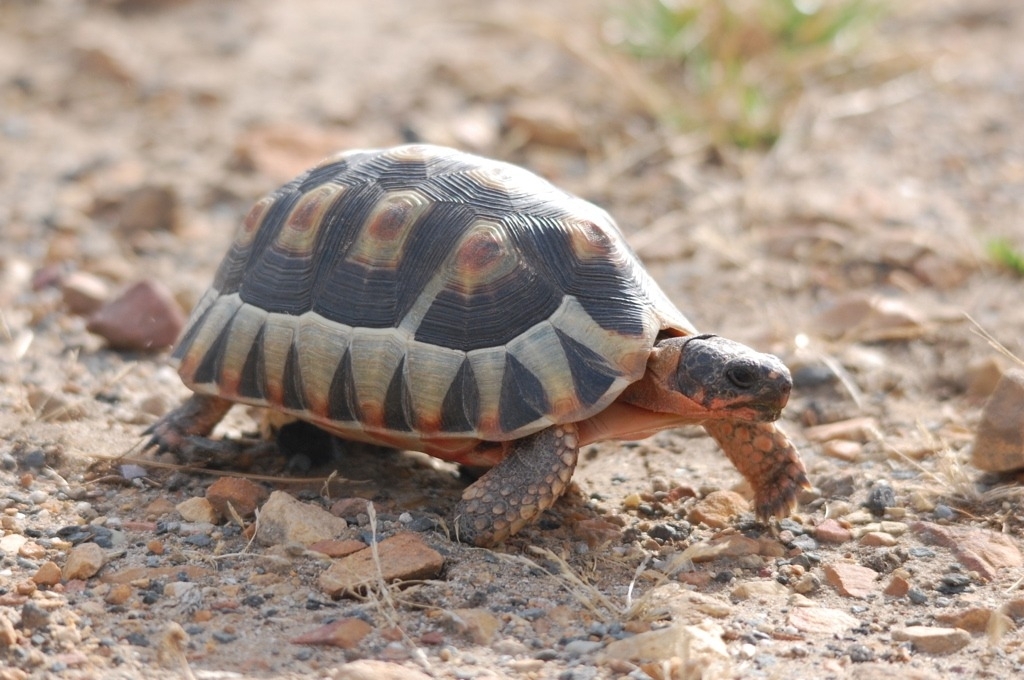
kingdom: Animalia
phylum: Chordata
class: Testudines
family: Testudinidae
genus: Chersina
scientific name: Chersina angulata
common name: South african bowsprit tortoise
